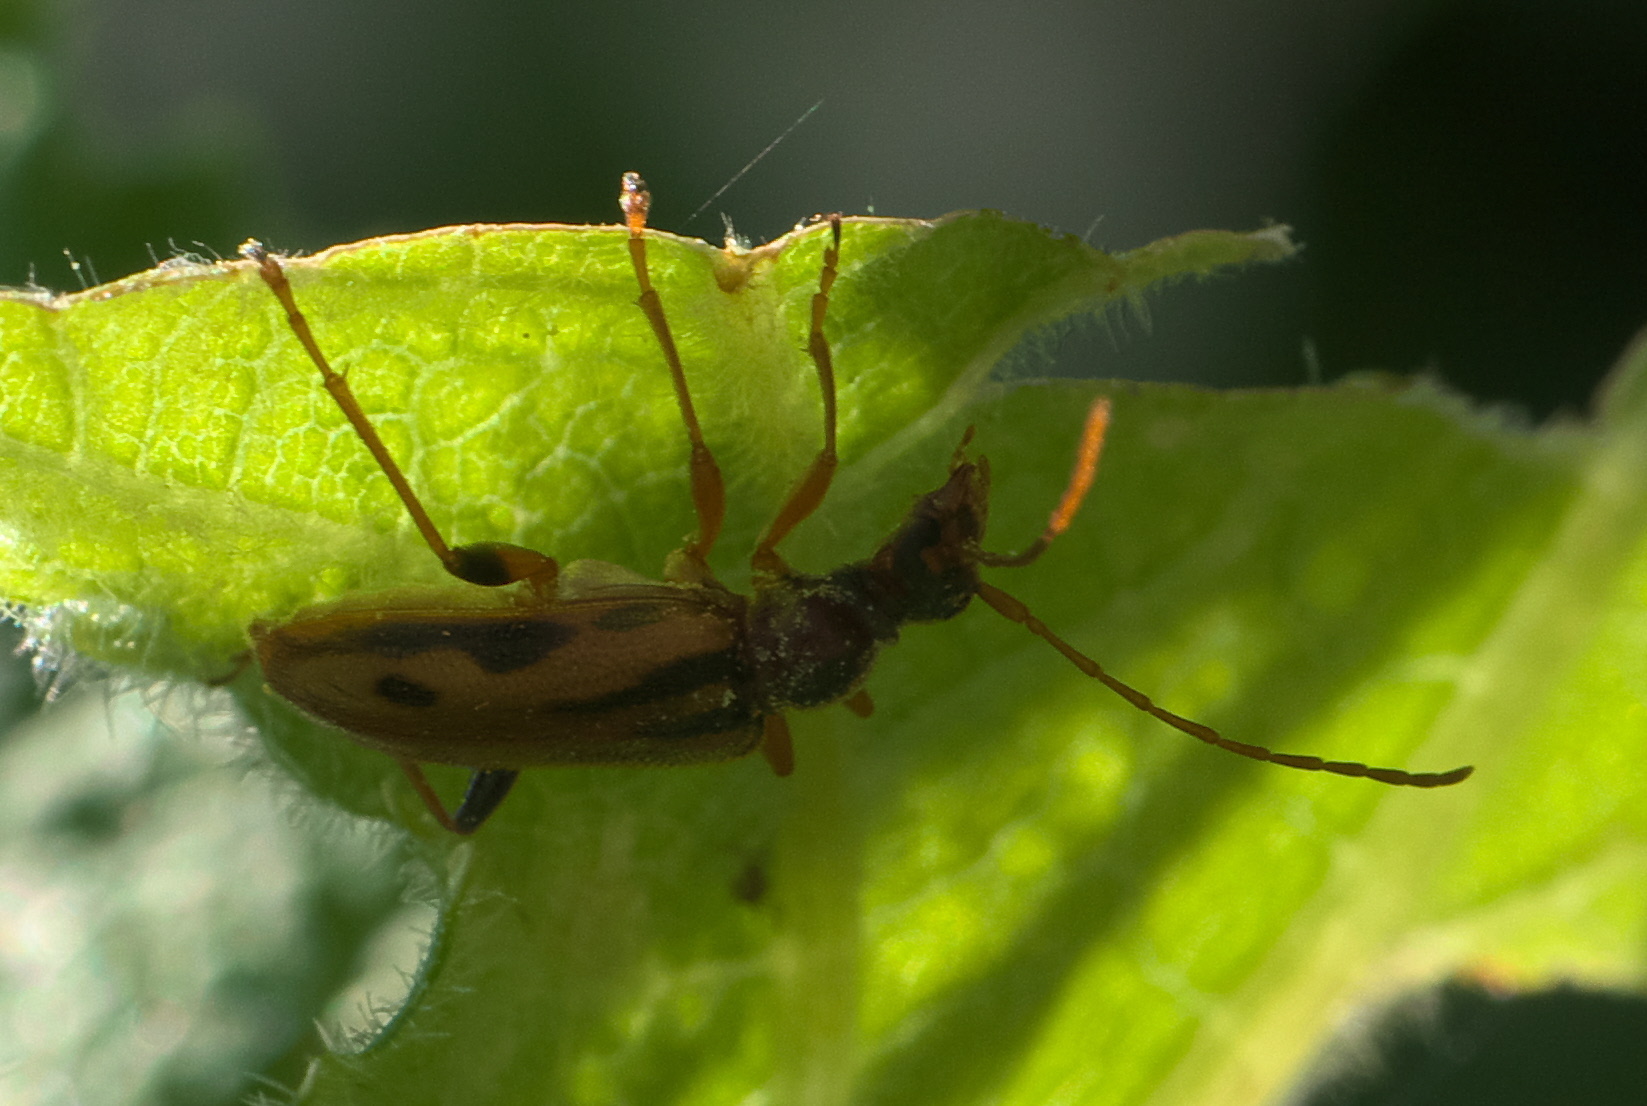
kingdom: Animalia
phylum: Arthropoda
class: Insecta
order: Coleoptera
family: Cerambycidae
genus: Pidonia
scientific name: Pidonia scripta
